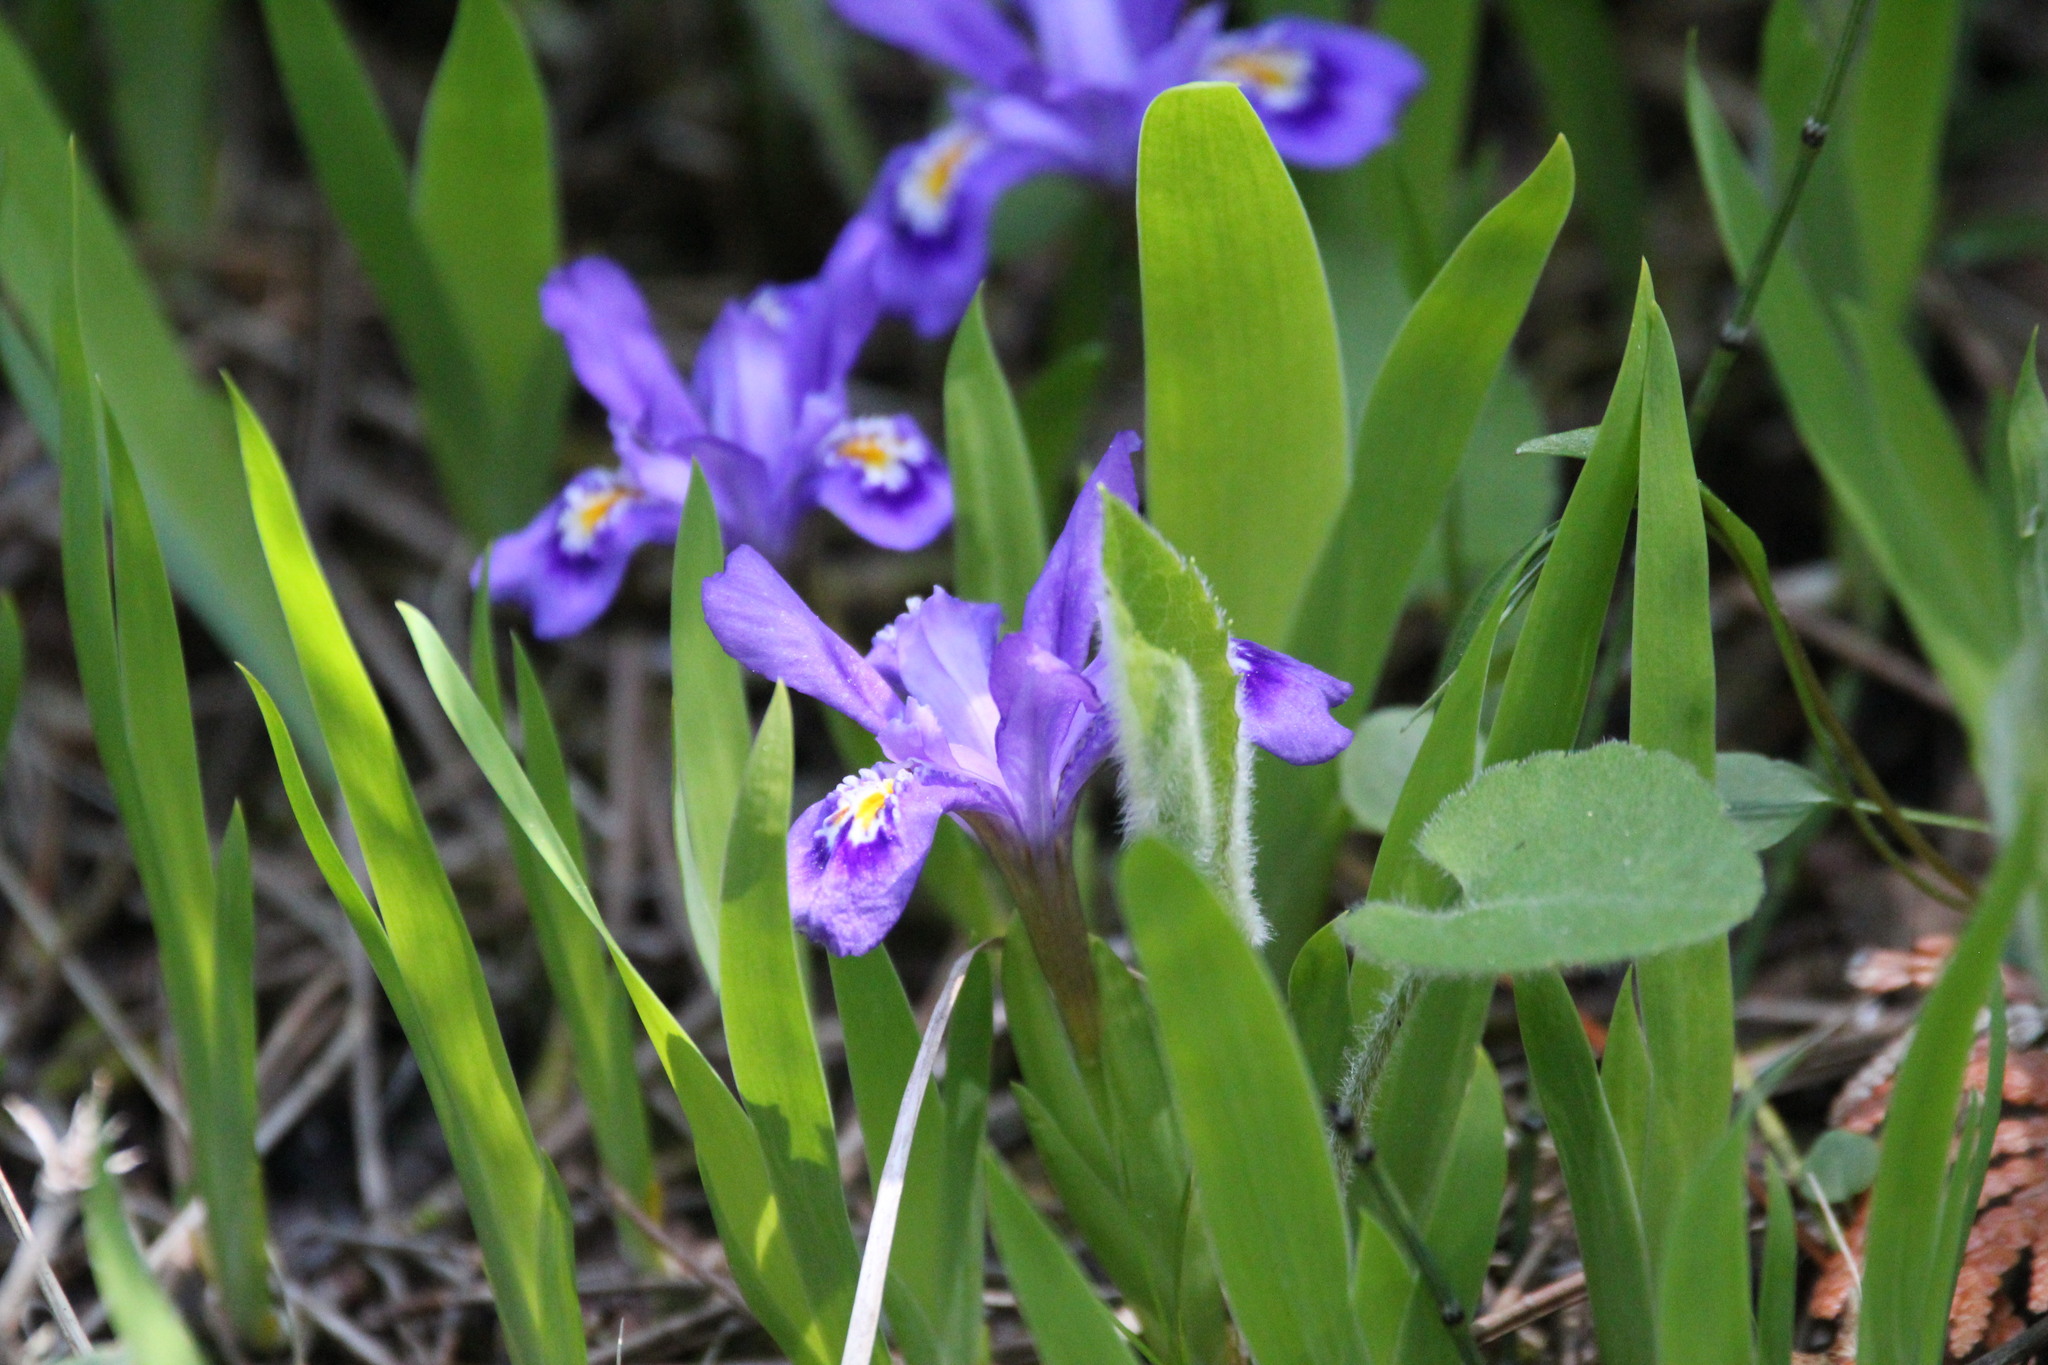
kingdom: Plantae
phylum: Tracheophyta
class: Liliopsida
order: Asparagales
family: Iridaceae
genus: Iris
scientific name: Iris lacustris
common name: Dwarf lake iris
